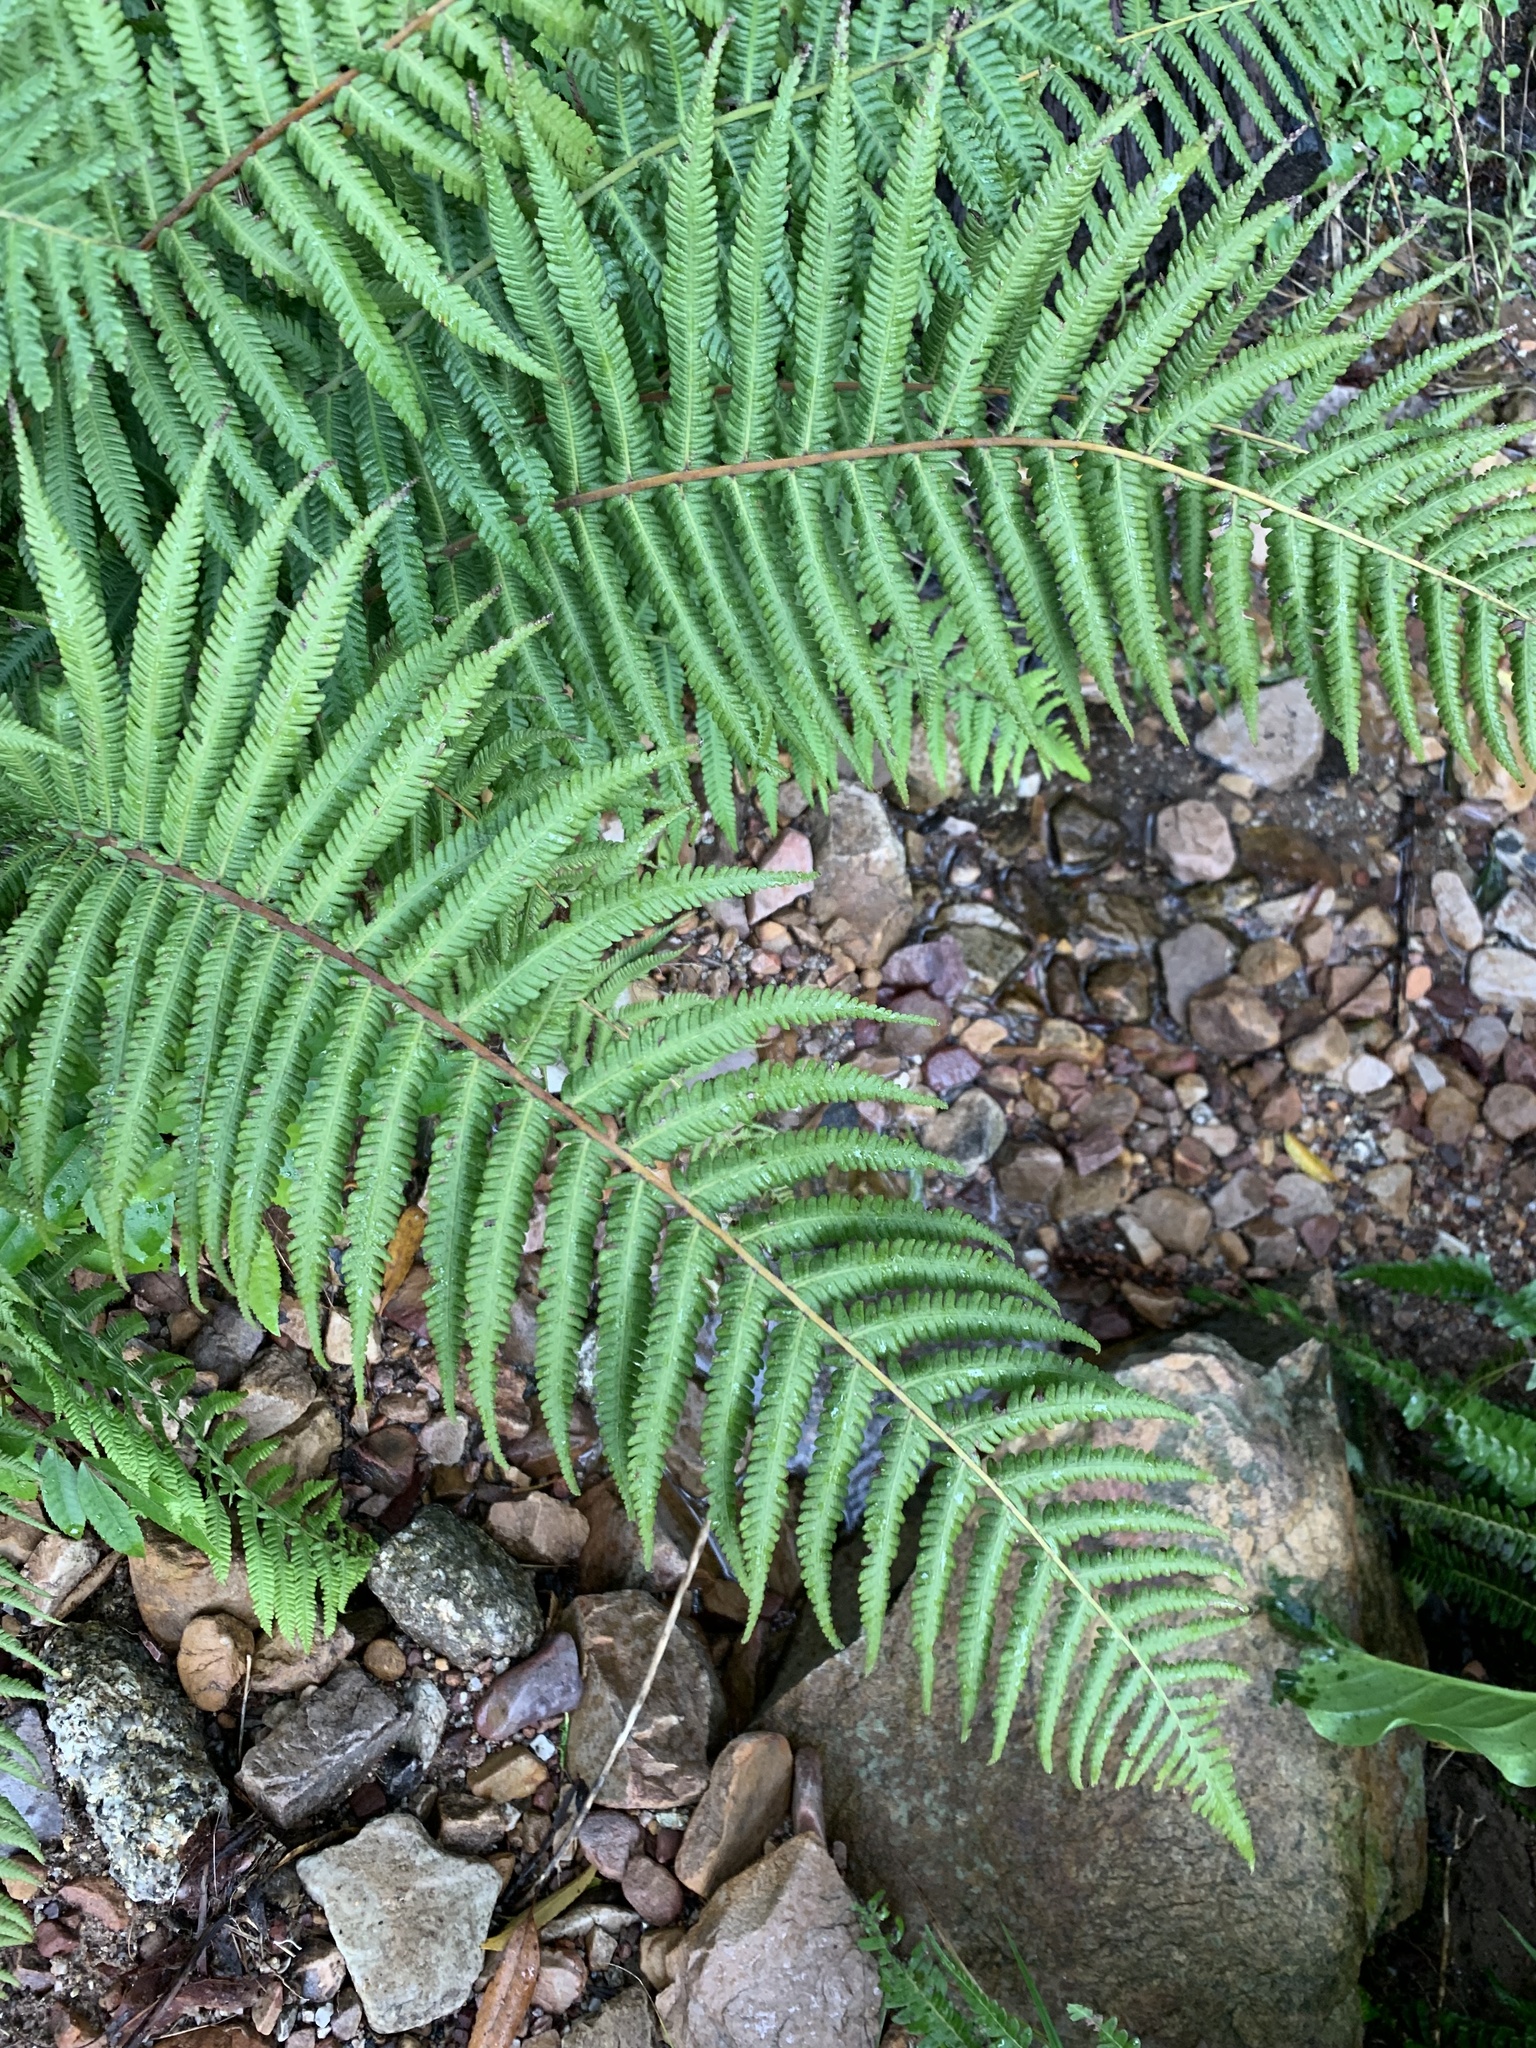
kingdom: Plantae
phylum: Tracheophyta
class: Polypodiopsida
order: Polypodiales
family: Thelypteridaceae
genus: Amauropelta
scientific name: Amauropelta bergiana
